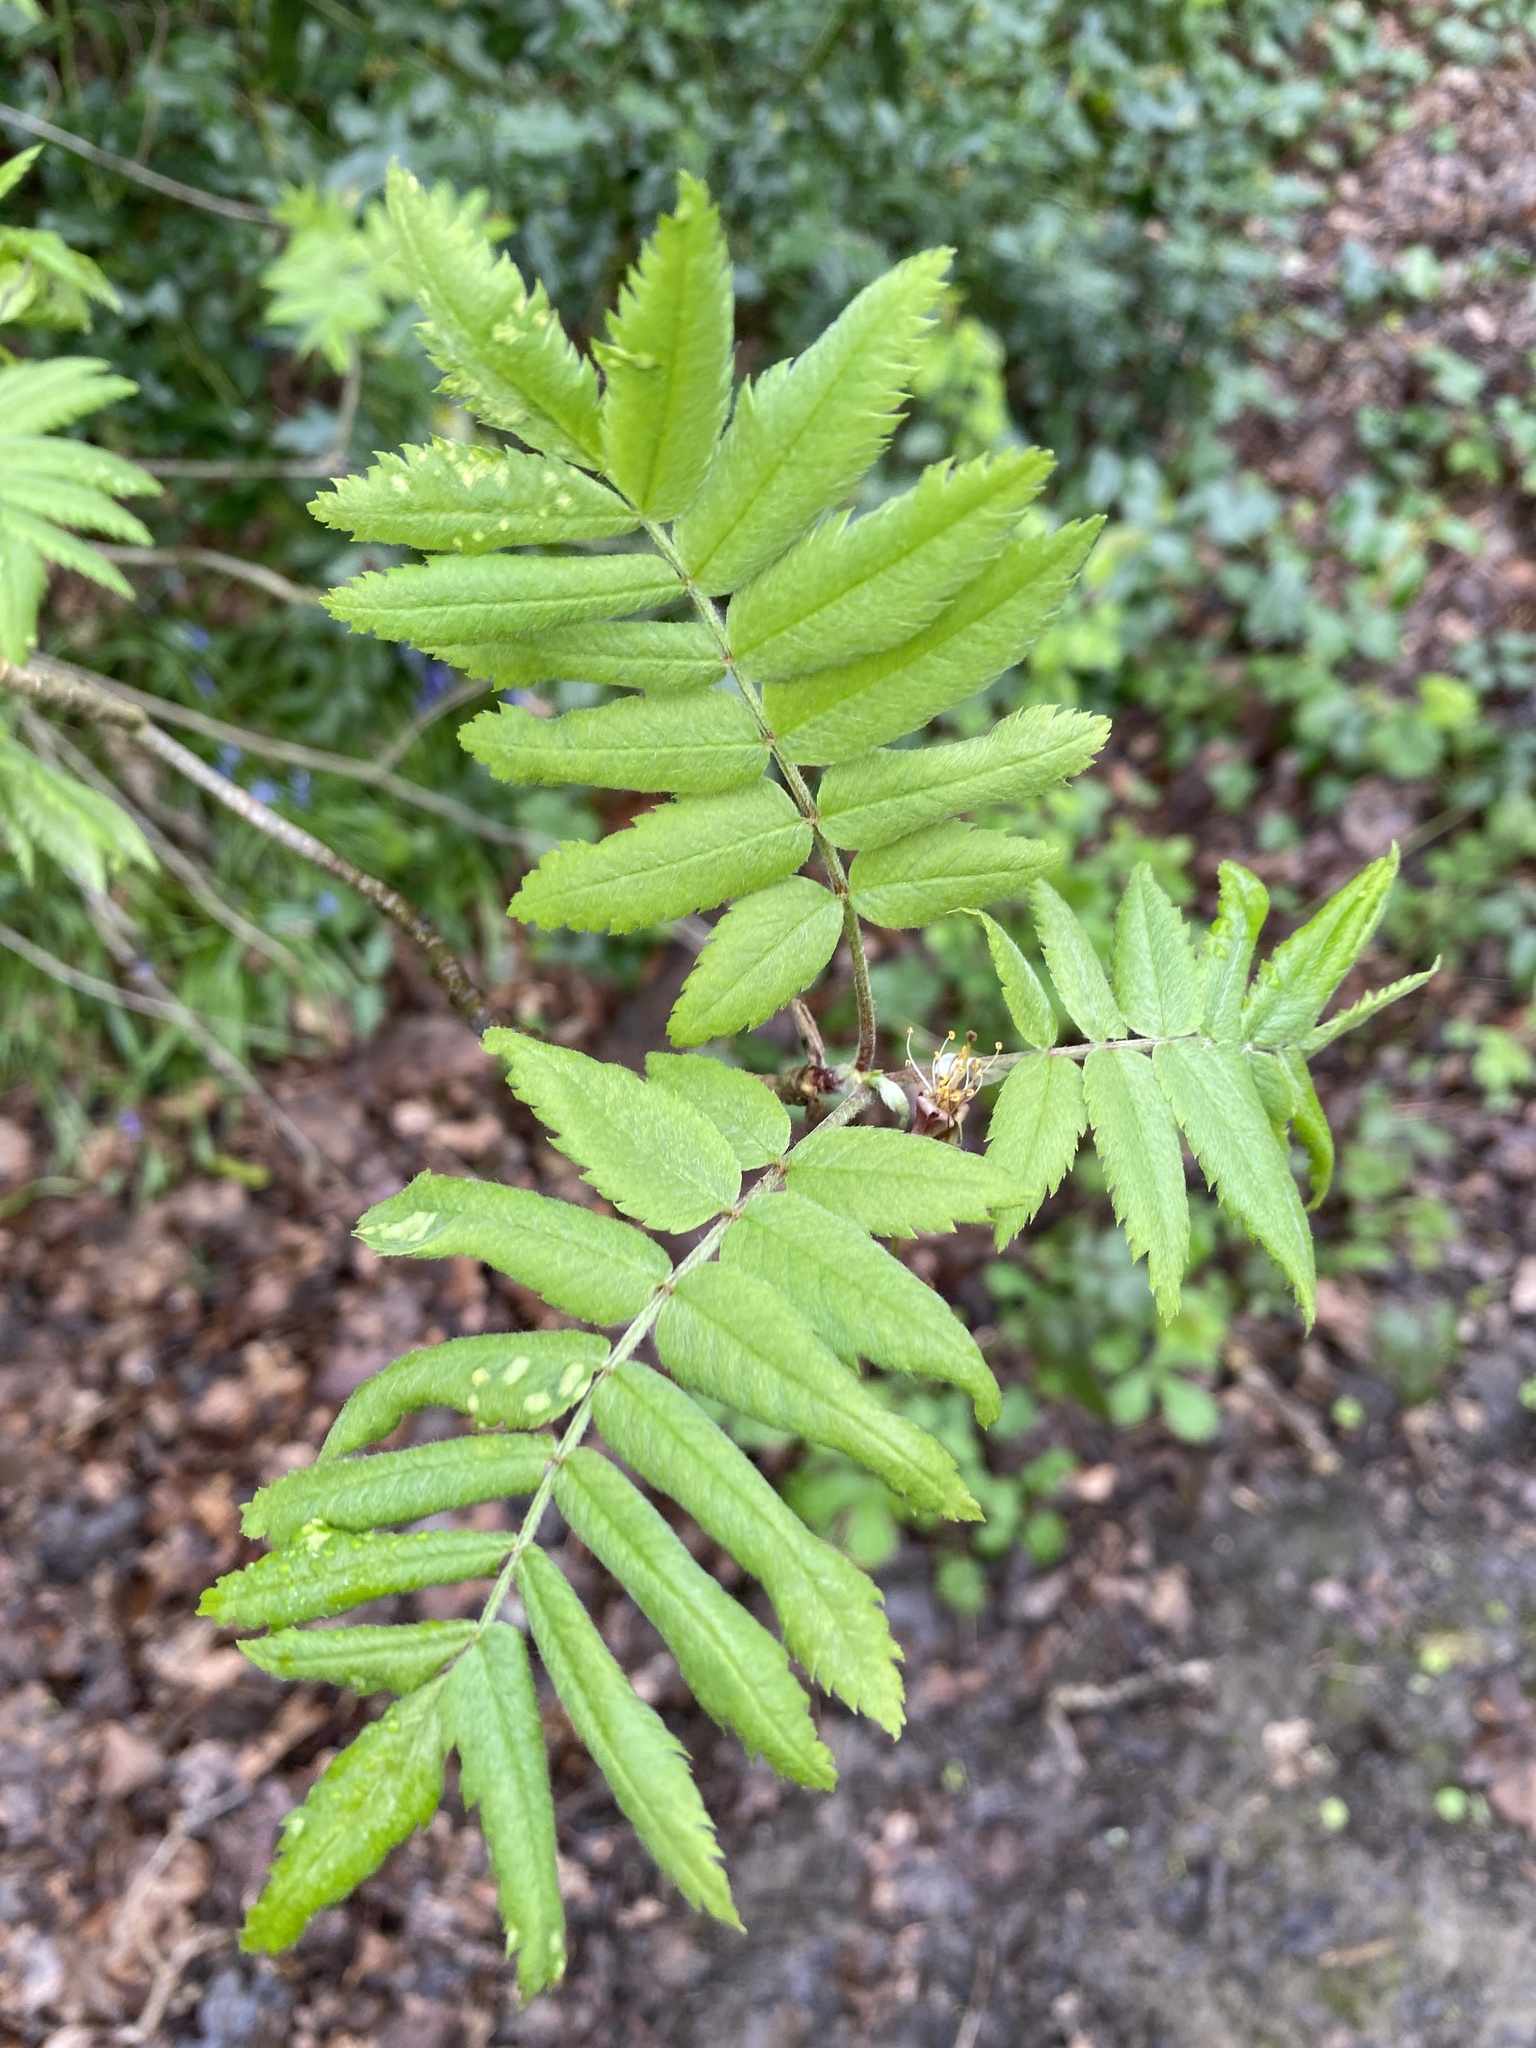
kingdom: Plantae
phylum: Tracheophyta
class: Magnoliopsida
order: Rosales
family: Rosaceae
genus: Sorbus
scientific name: Sorbus aucuparia
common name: Rowan
